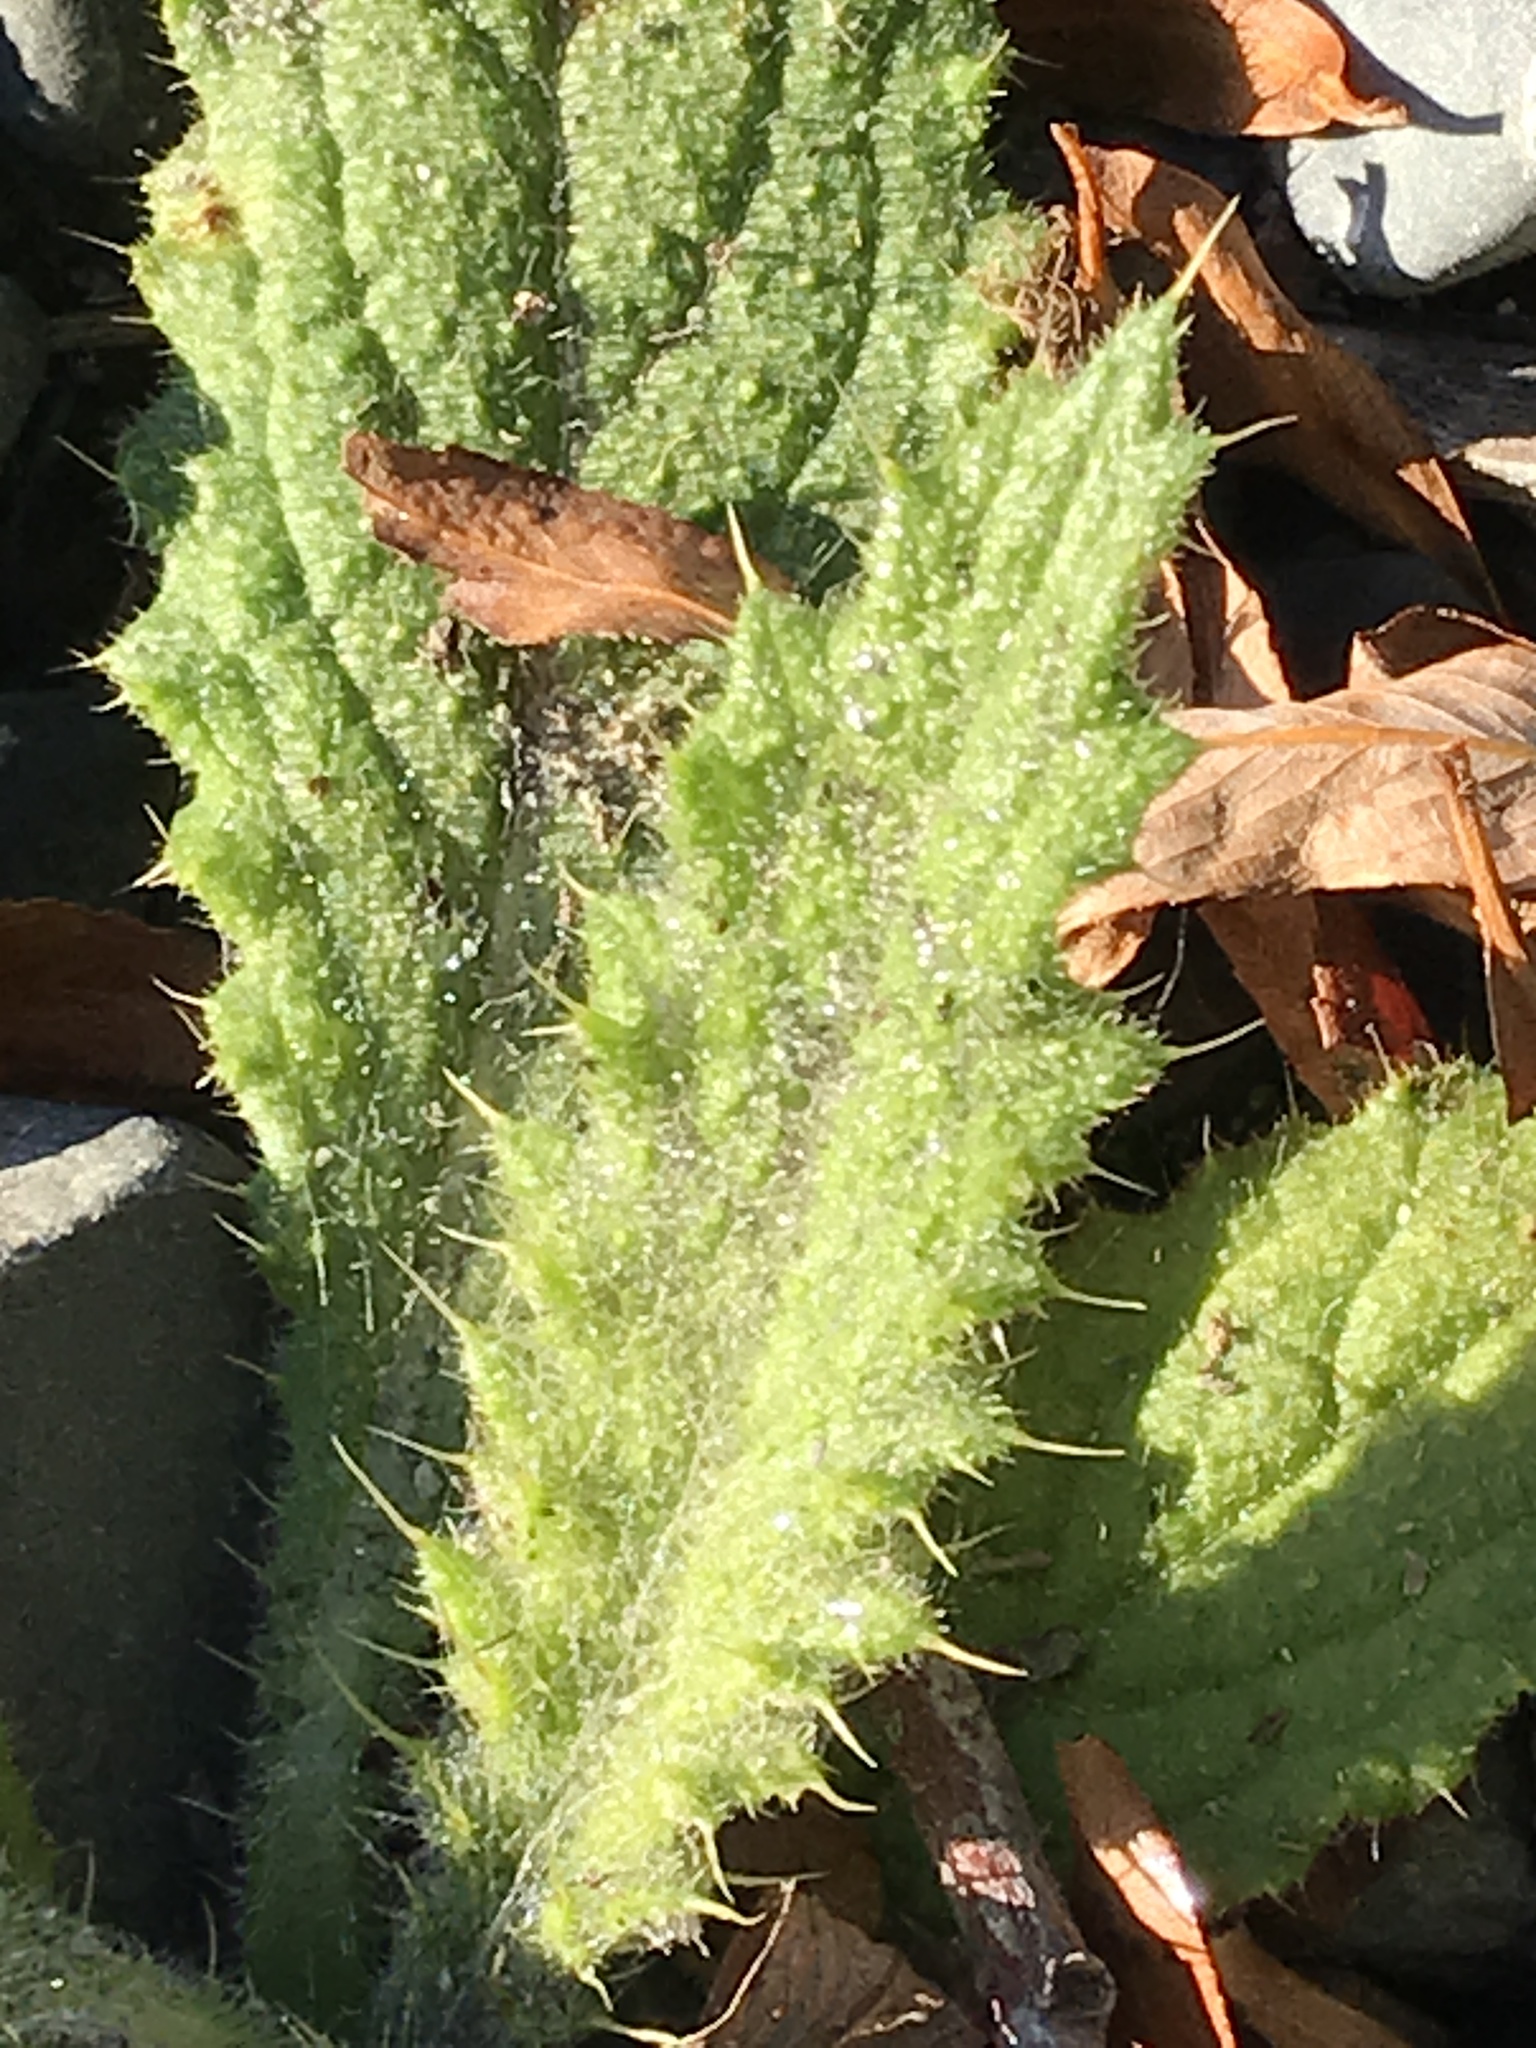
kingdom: Plantae
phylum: Tracheophyta
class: Magnoliopsida
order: Asterales
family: Asteraceae
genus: Cirsium
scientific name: Cirsium vulgare
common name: Bull thistle
